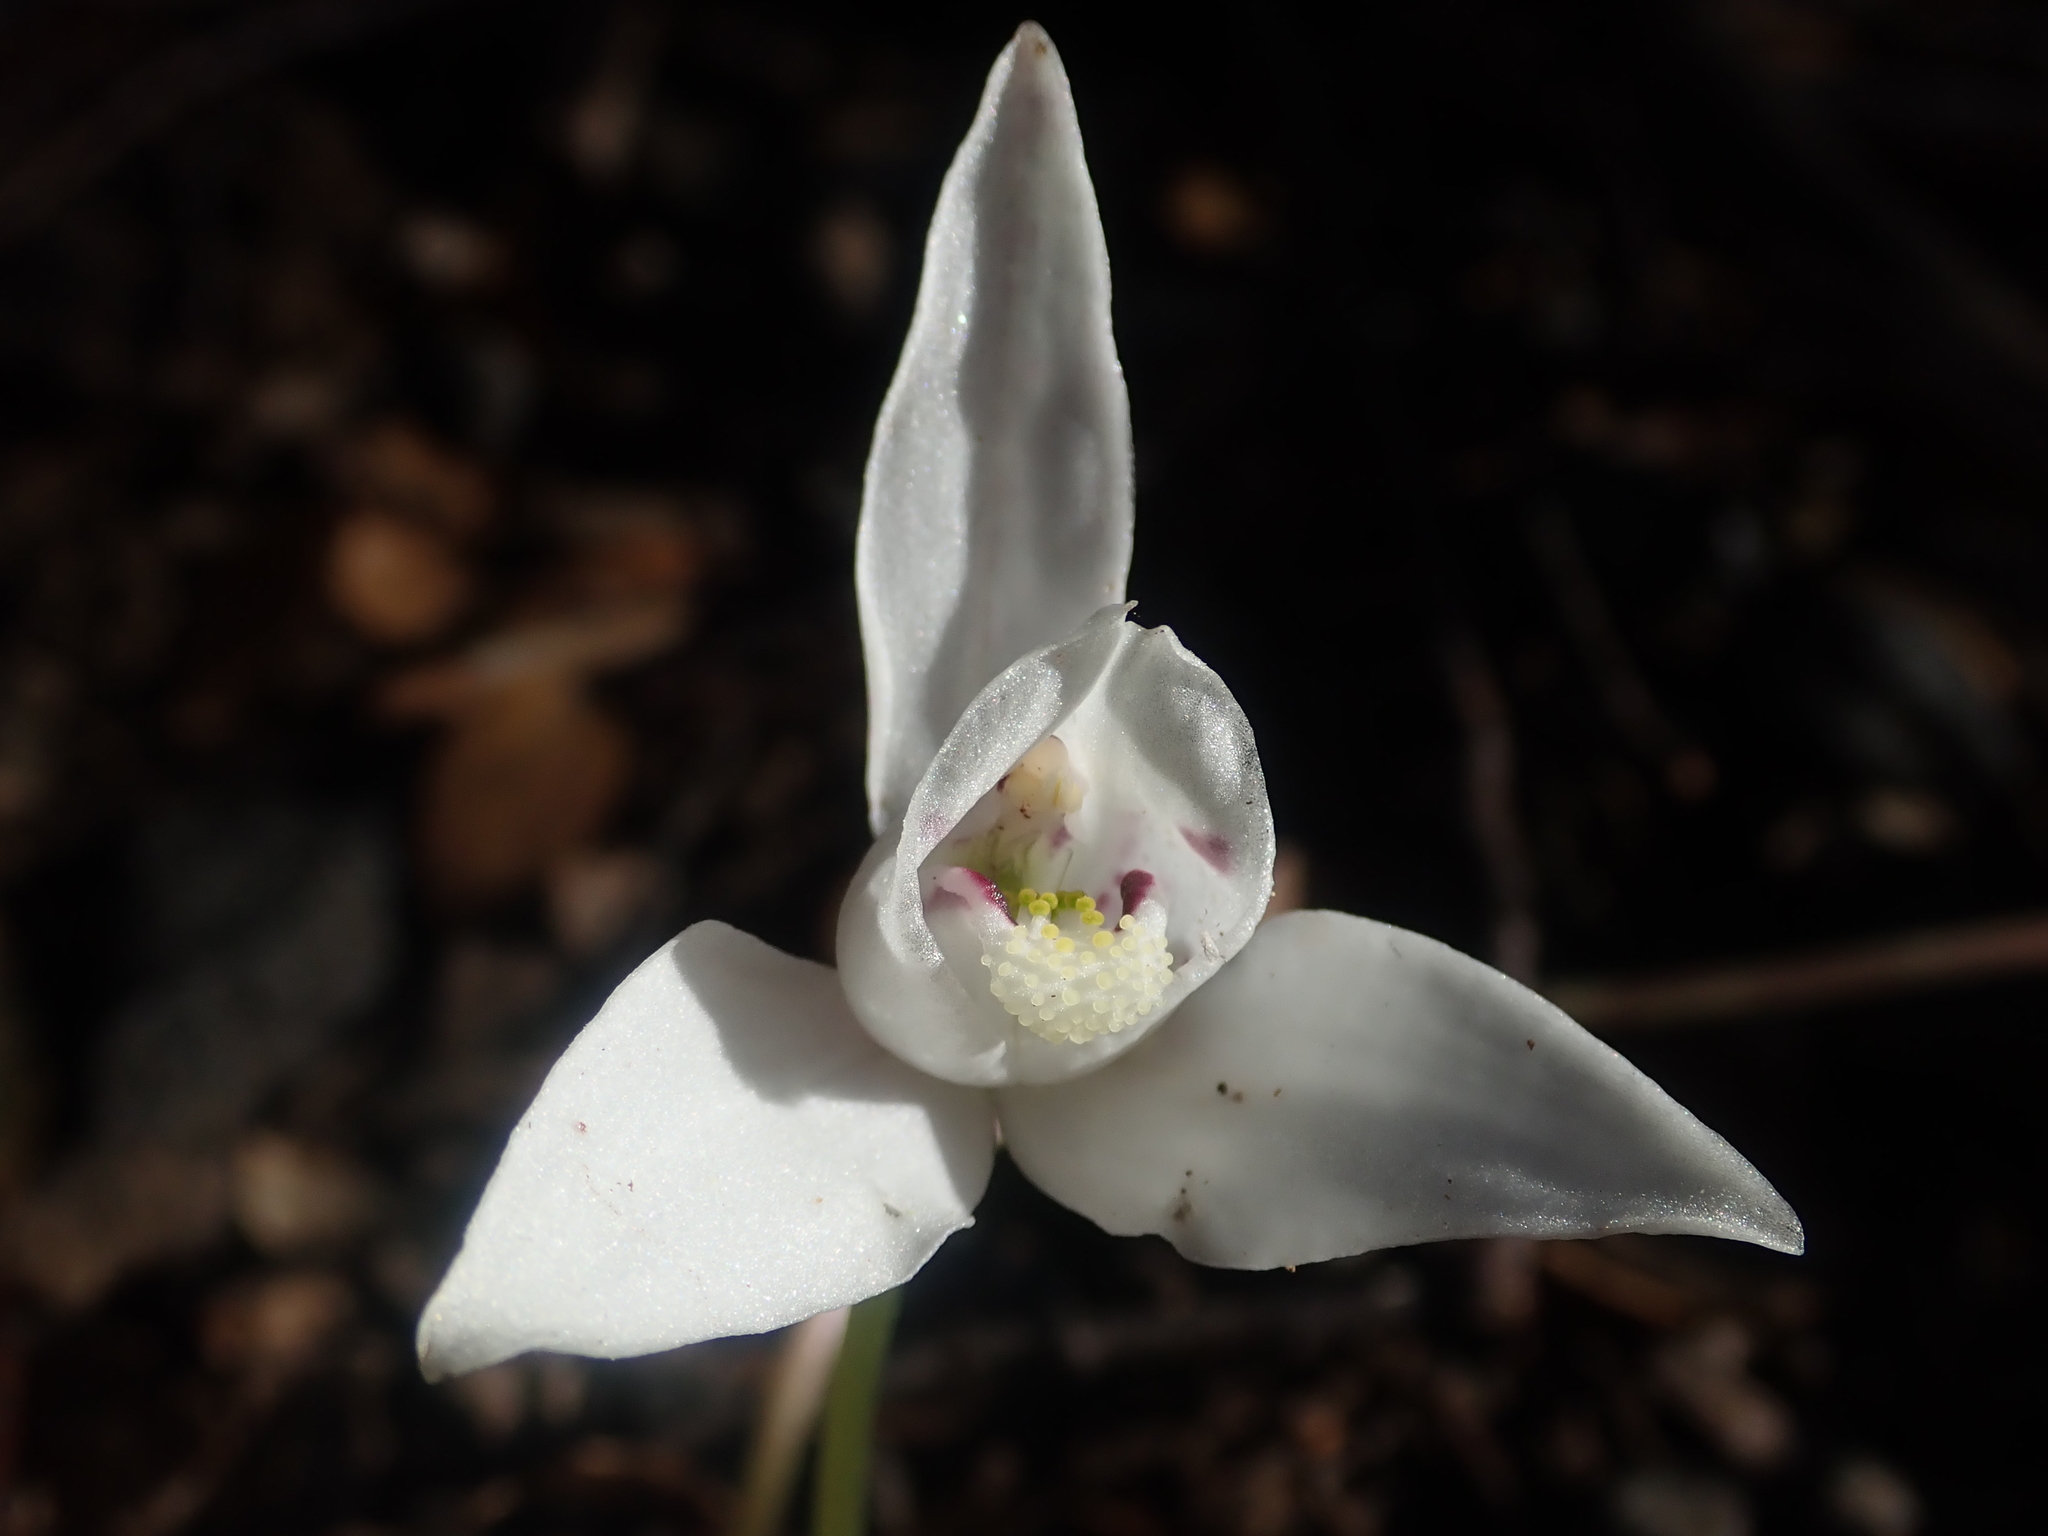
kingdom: Plantae
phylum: Tracheophyta
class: Liliopsida
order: Asparagales
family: Orchidaceae
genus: Codonorchis
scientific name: Codonorchis lessonii
